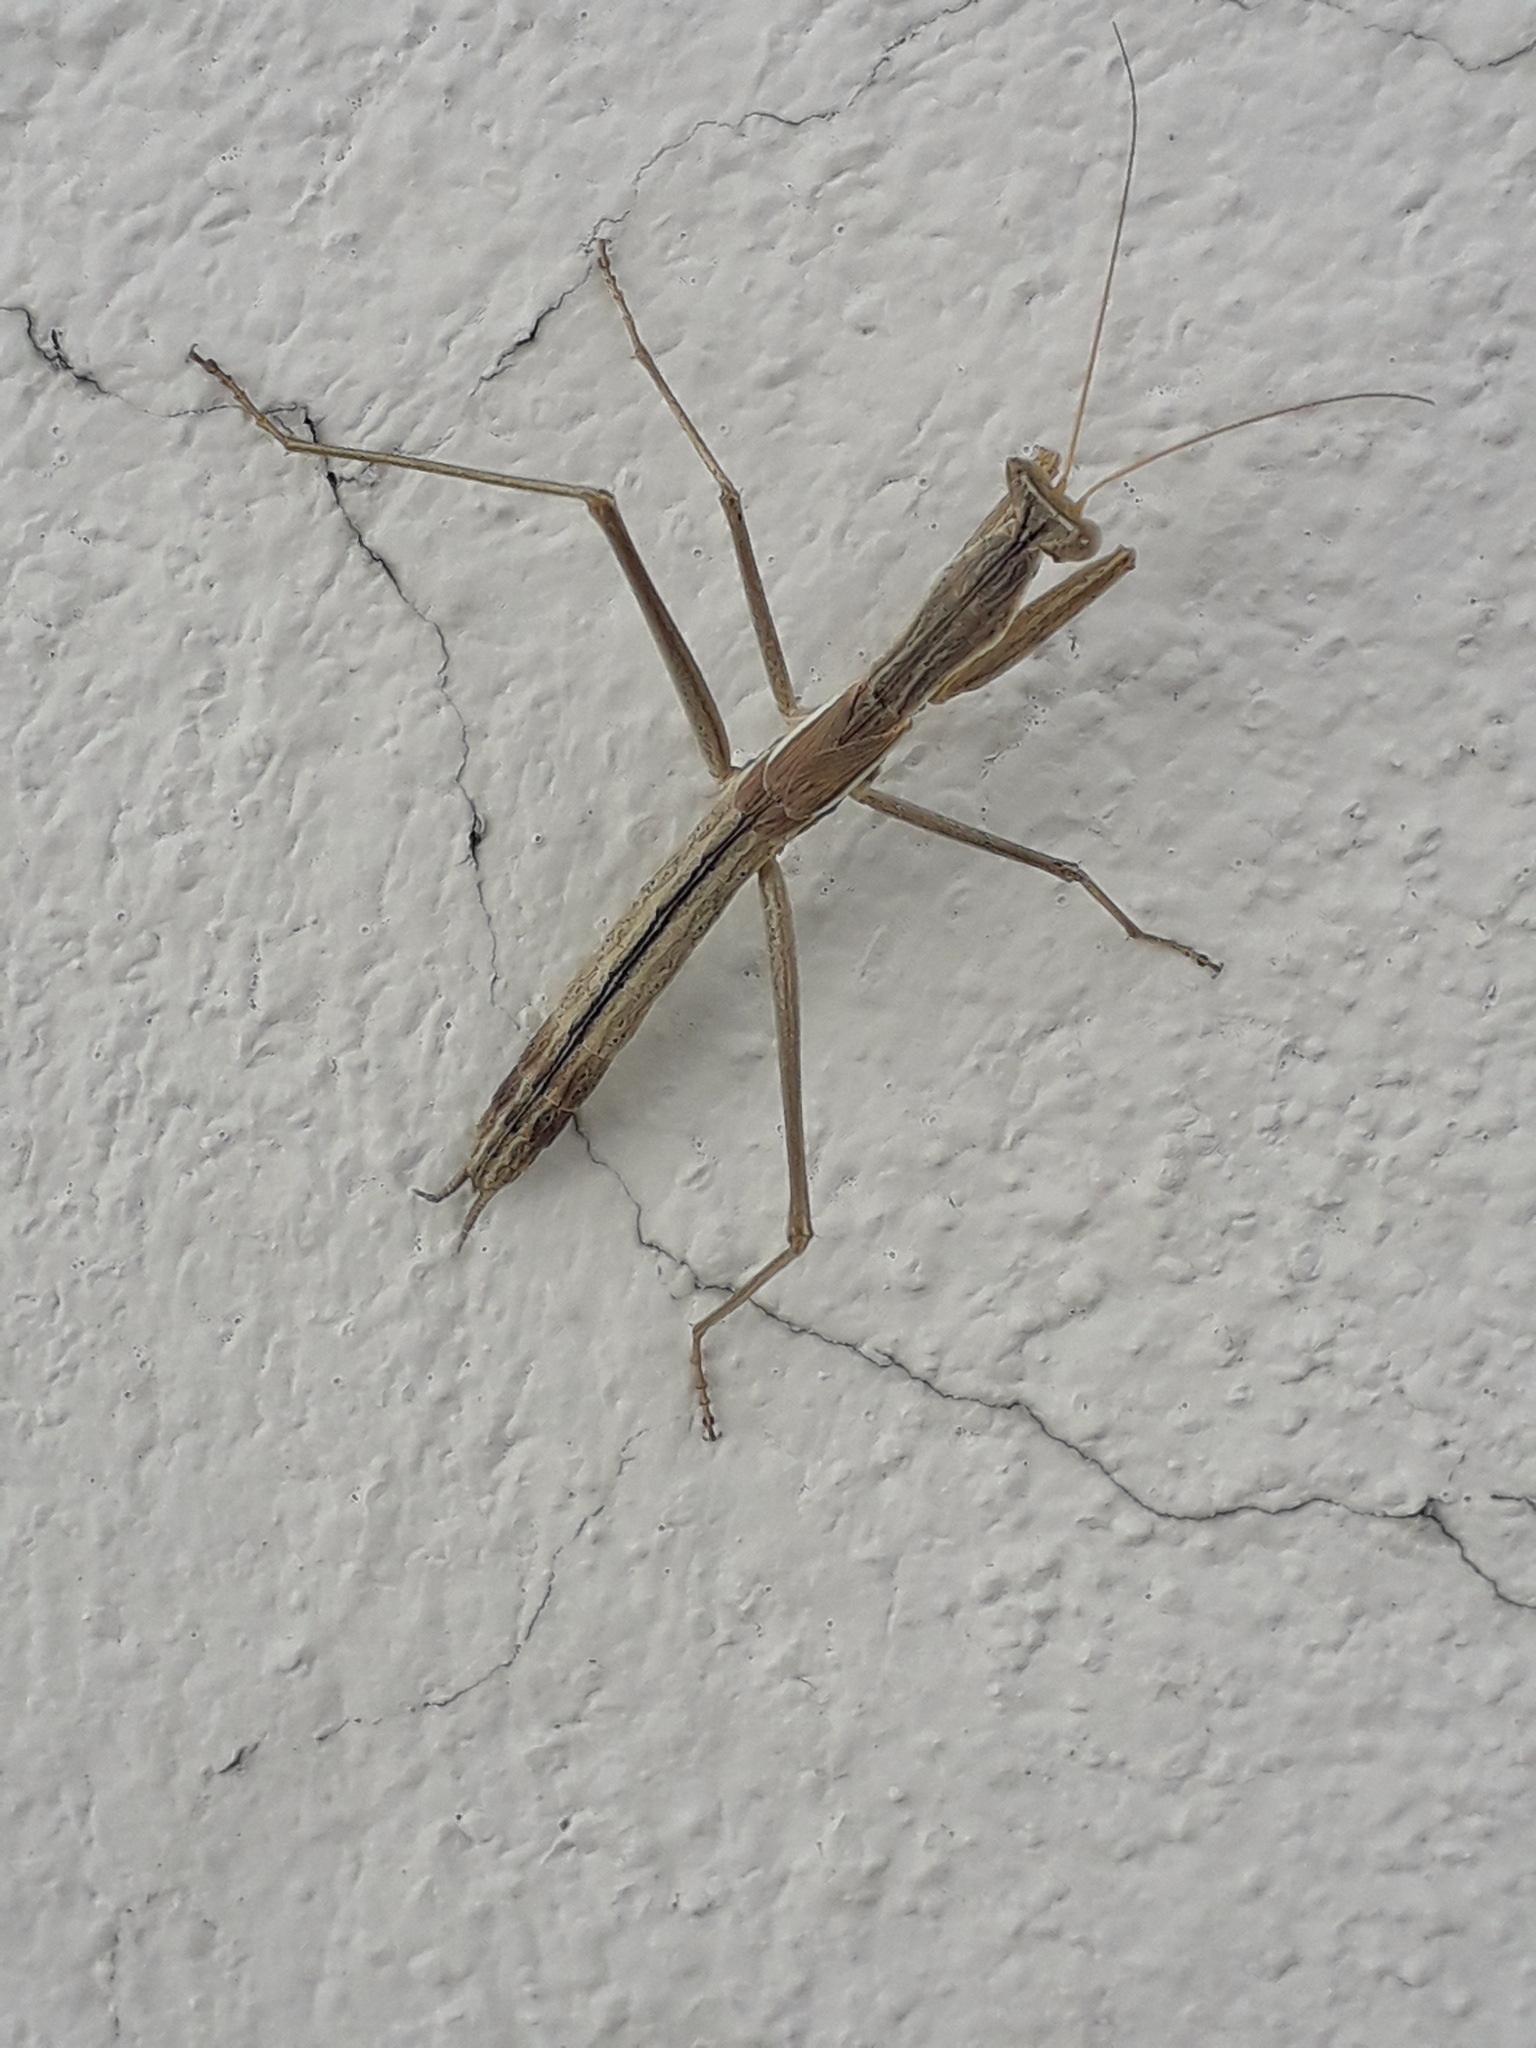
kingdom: Animalia
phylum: Arthropoda
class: Insecta
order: Mantodea
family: Amelidae
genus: Yersinia
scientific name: Yersinia mexicana
